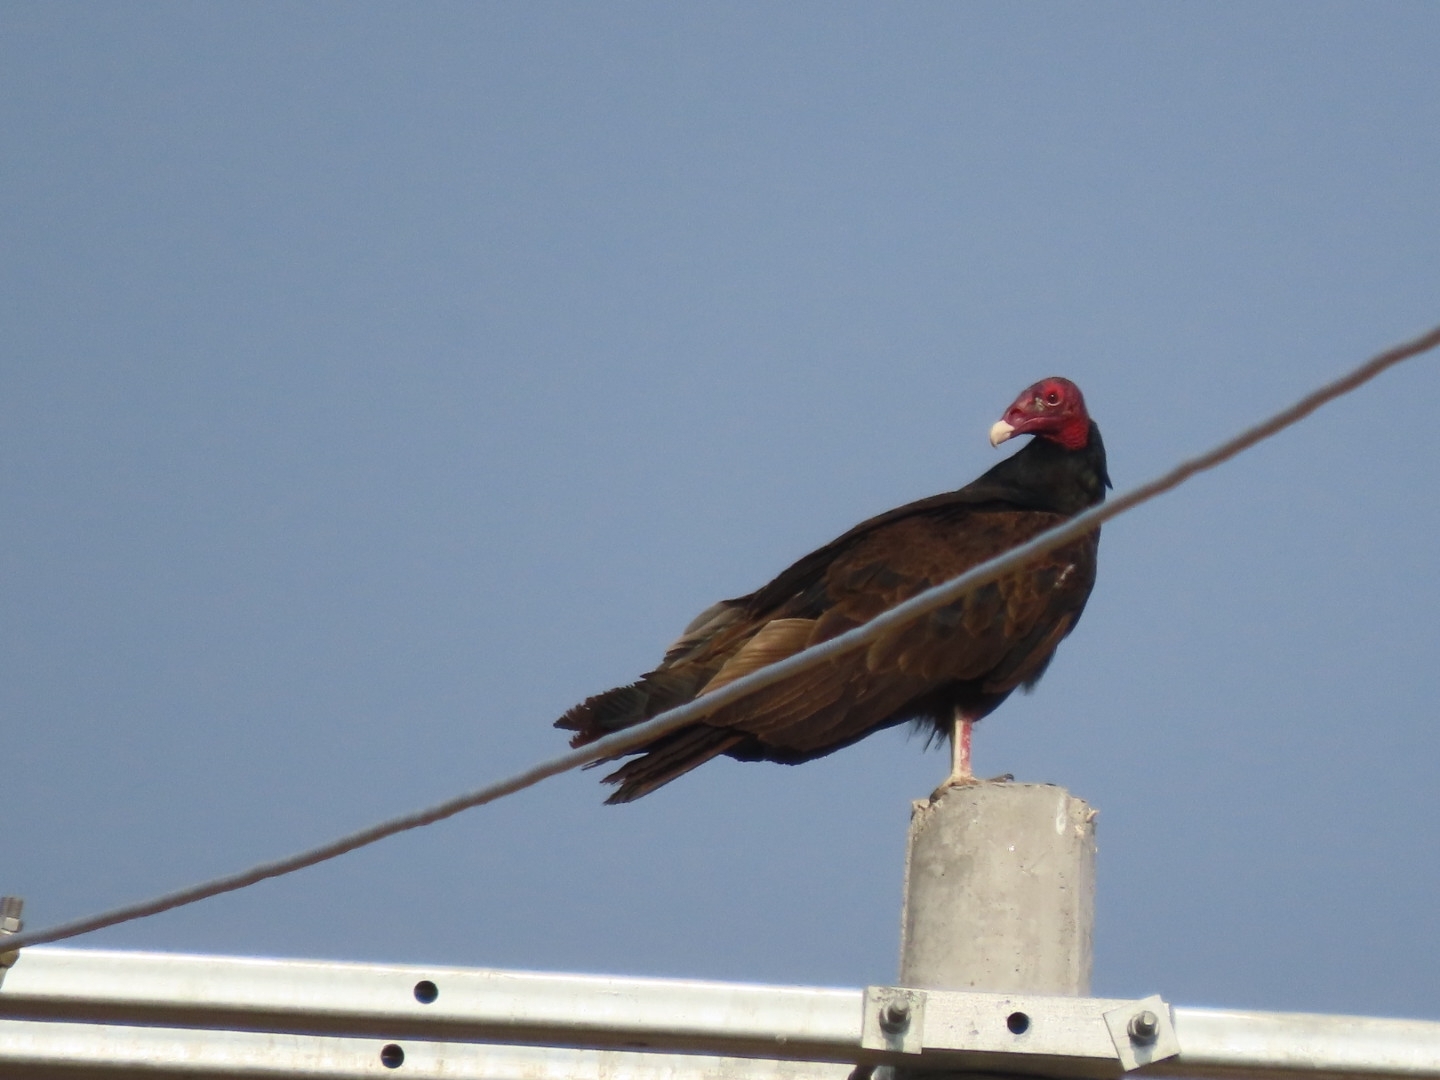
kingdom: Animalia
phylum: Chordata
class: Aves
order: Accipitriformes
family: Cathartidae
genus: Cathartes
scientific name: Cathartes aura
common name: Turkey vulture
